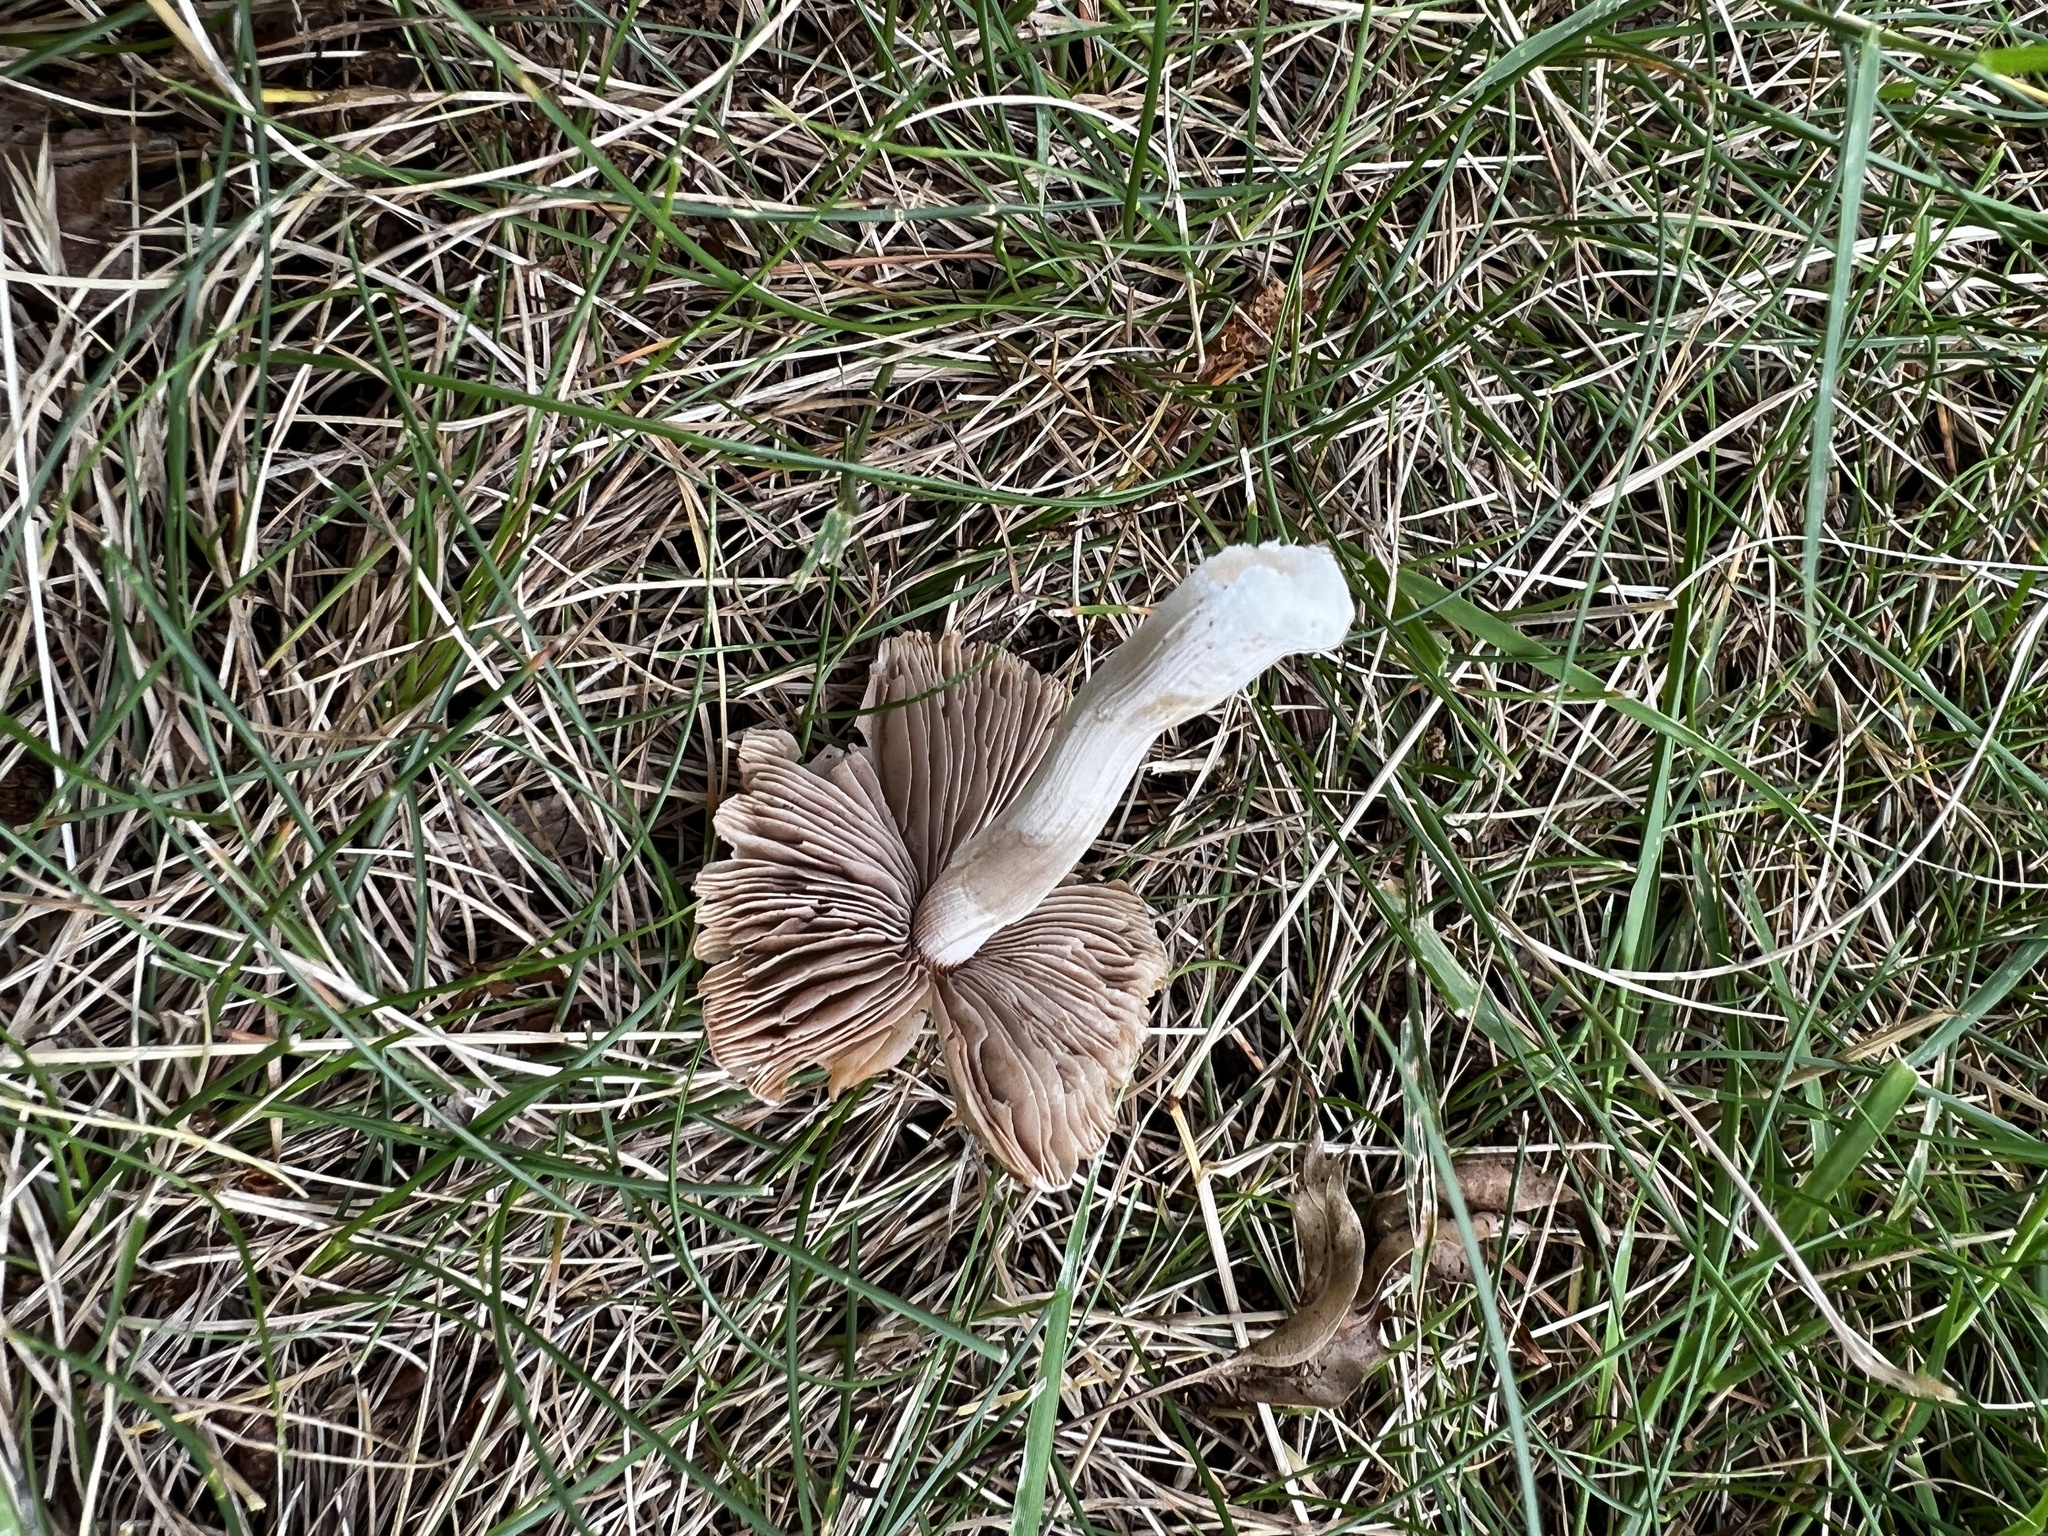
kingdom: Fungi
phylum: Basidiomycota
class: Agaricomycetes
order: Agaricales
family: Inocybaceae
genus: Inocybe
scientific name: Inocybe velicopia
